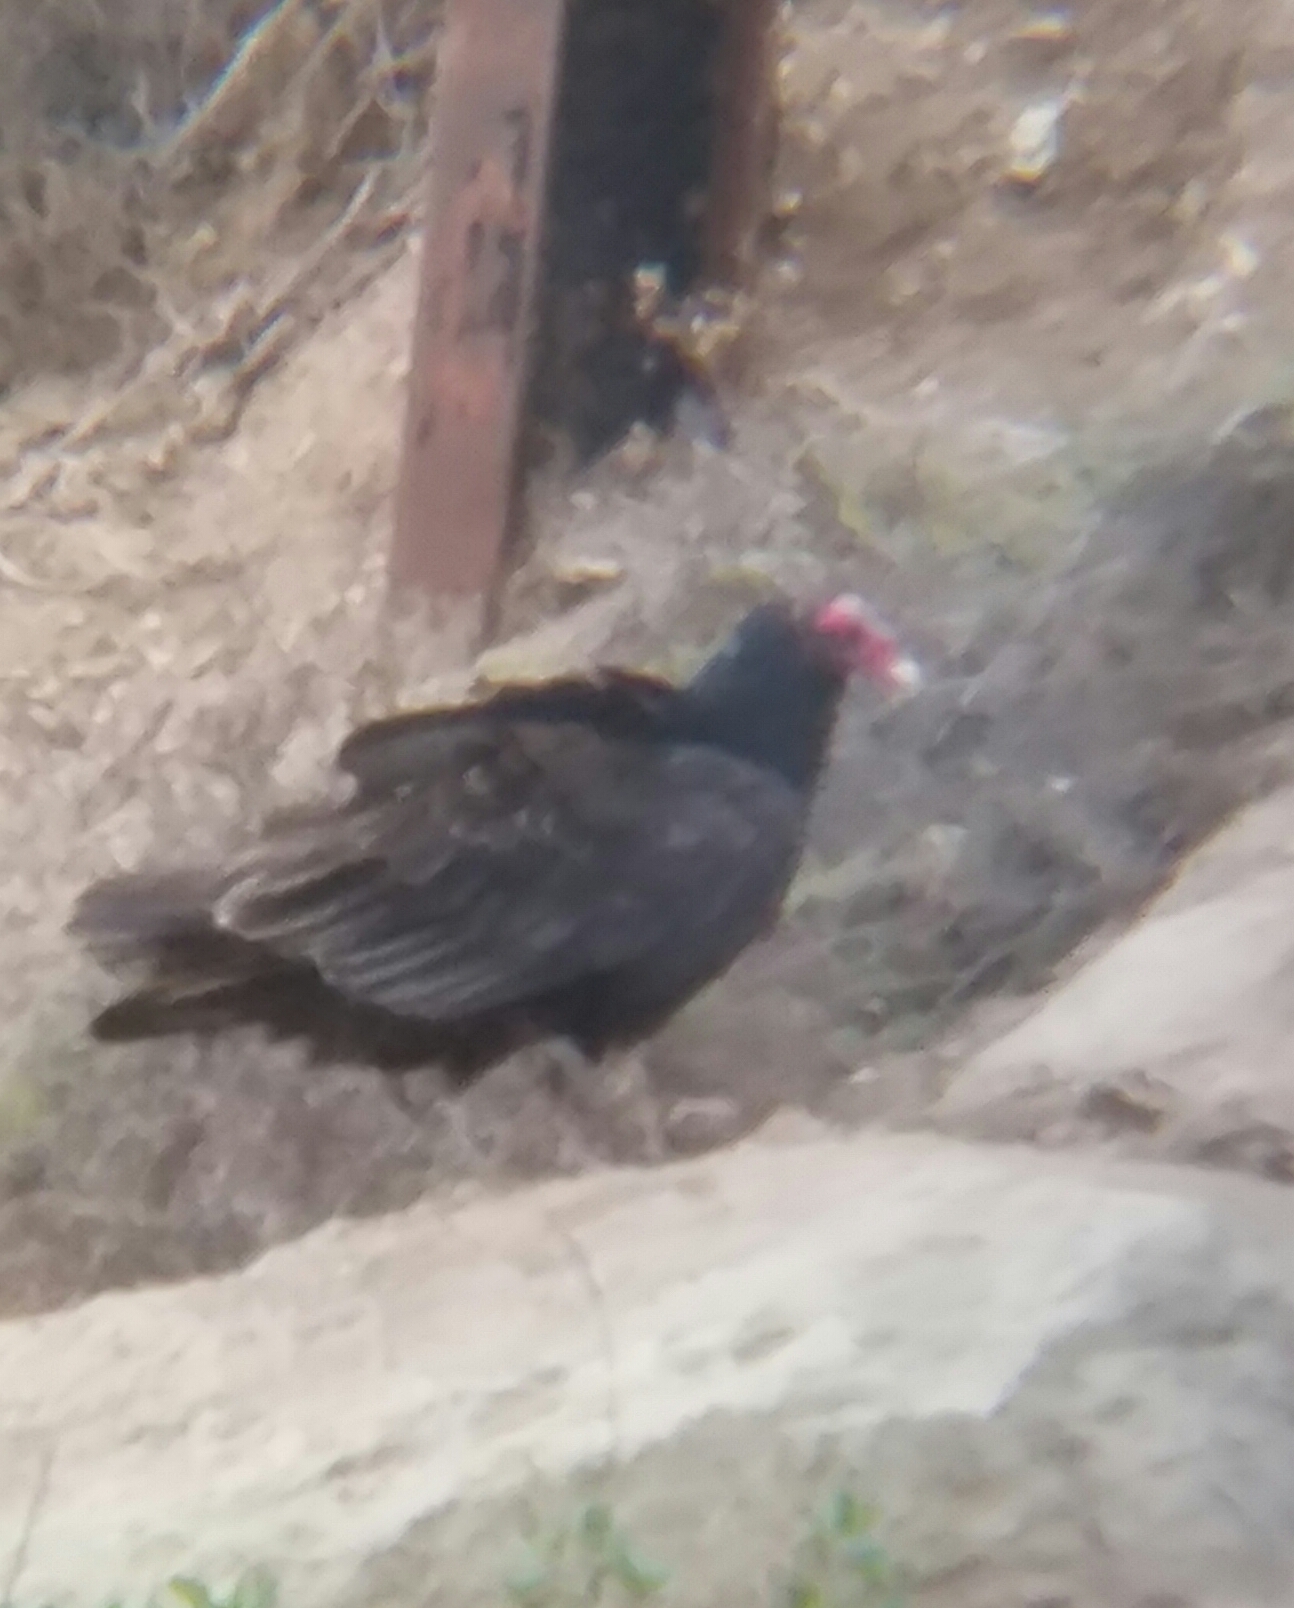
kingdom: Animalia
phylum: Chordata
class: Aves
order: Accipitriformes
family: Cathartidae
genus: Cathartes
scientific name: Cathartes aura
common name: Turkey vulture
